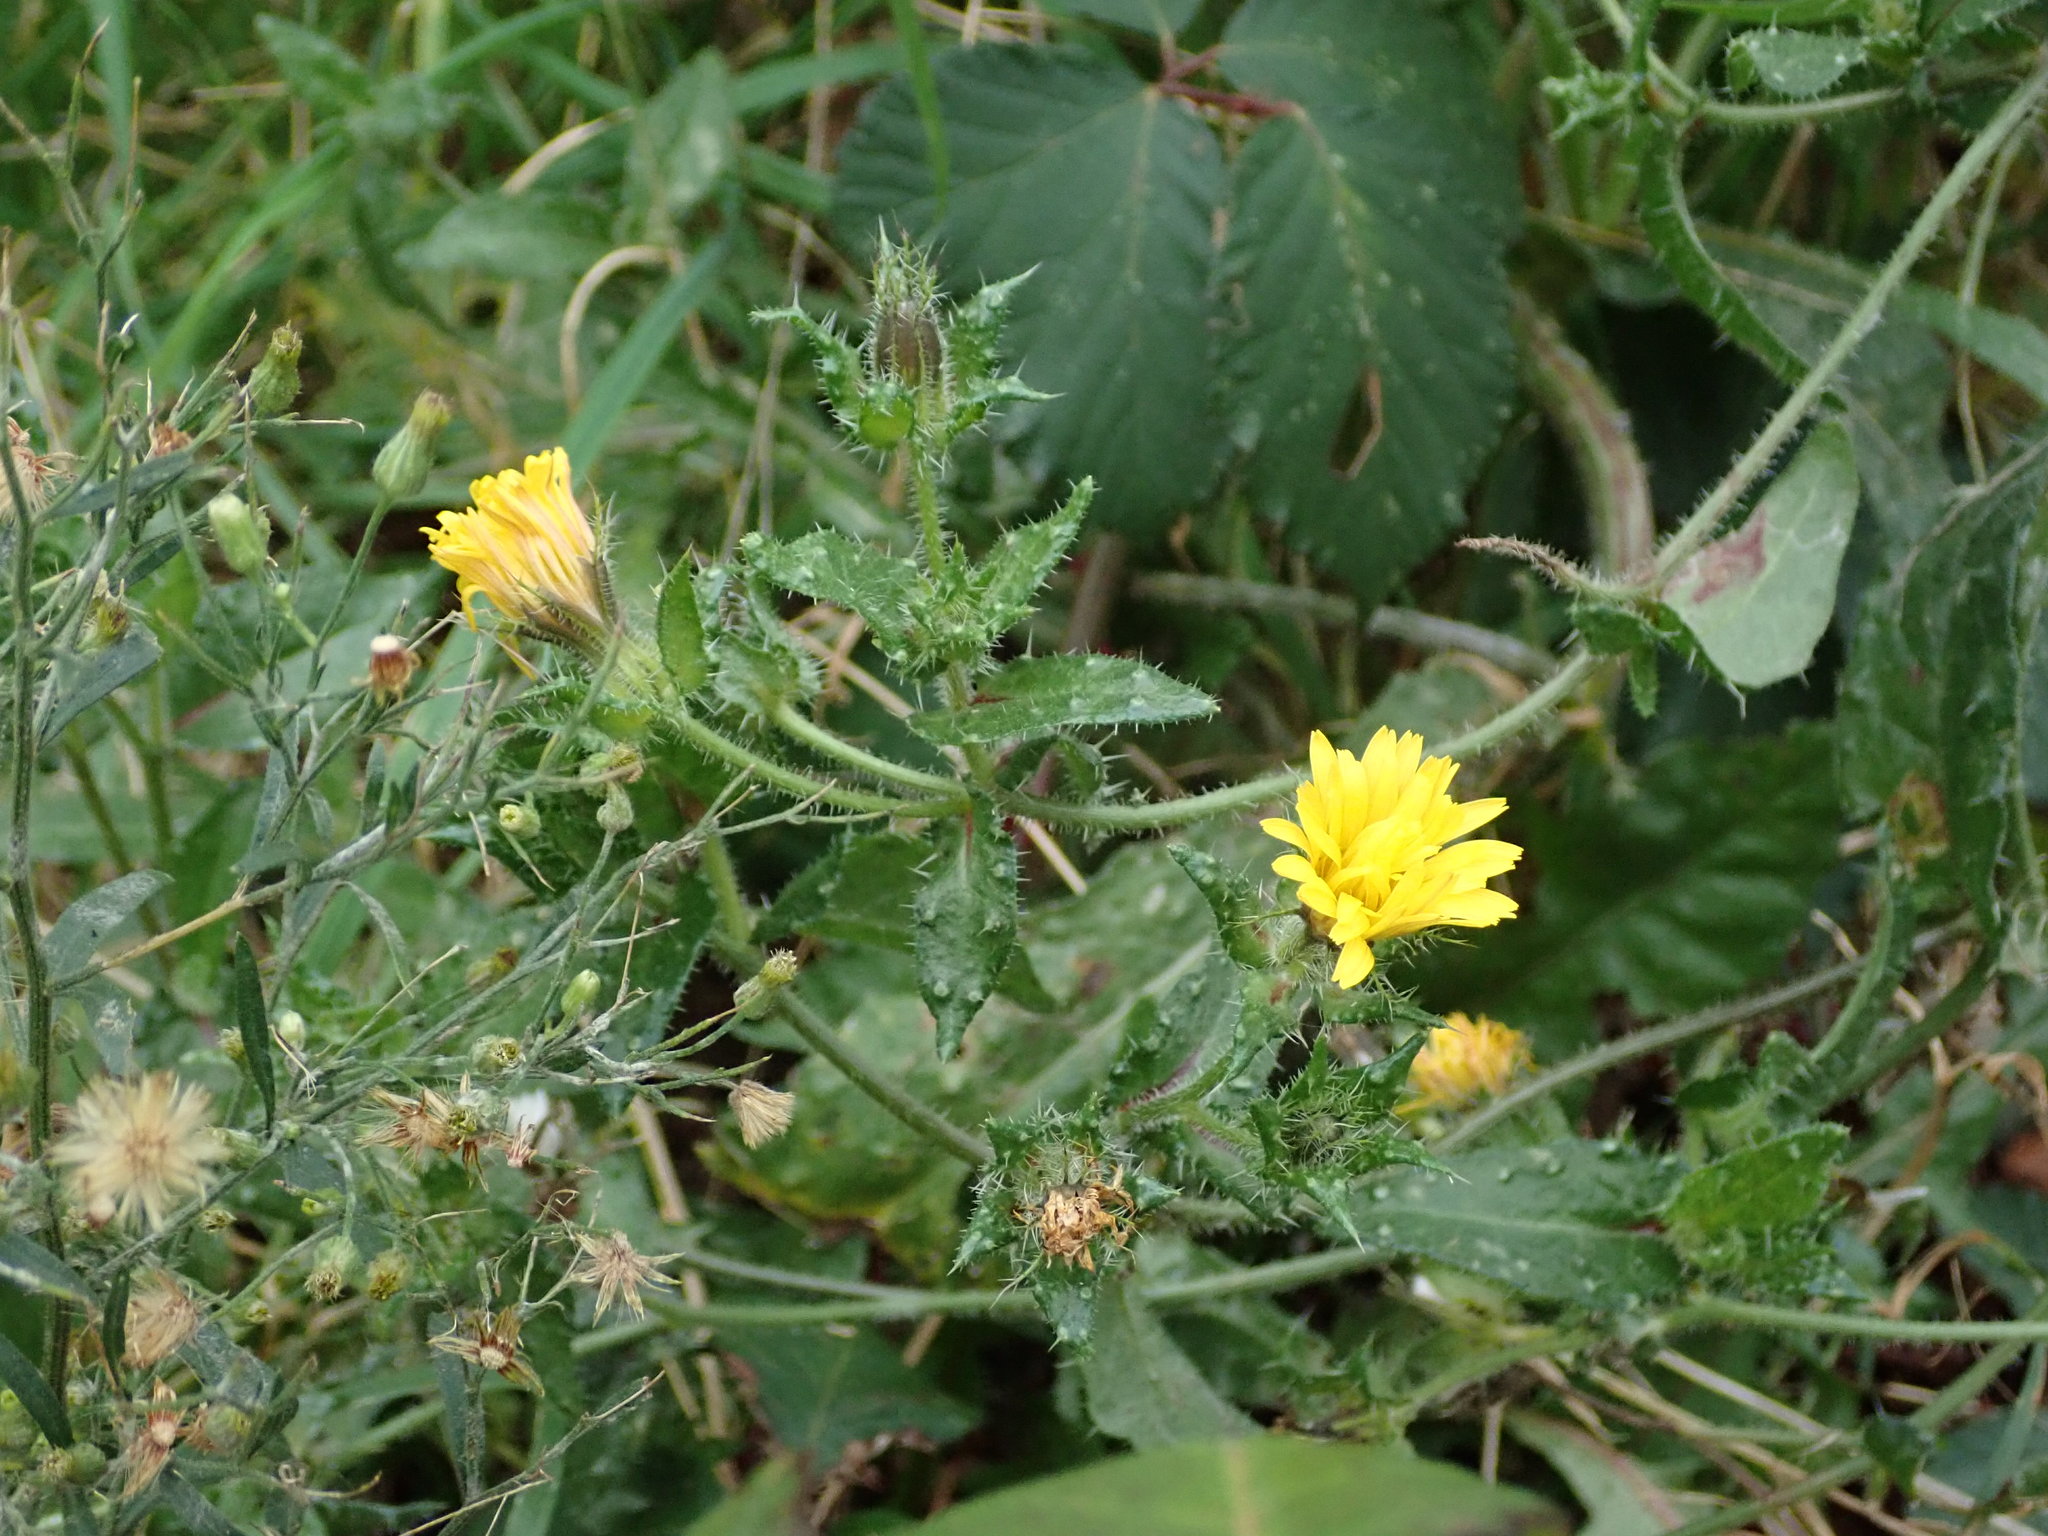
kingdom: Plantae
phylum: Tracheophyta
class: Magnoliopsida
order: Asterales
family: Asteraceae
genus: Helminthotheca
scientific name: Helminthotheca echioides
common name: Ox-tongue
